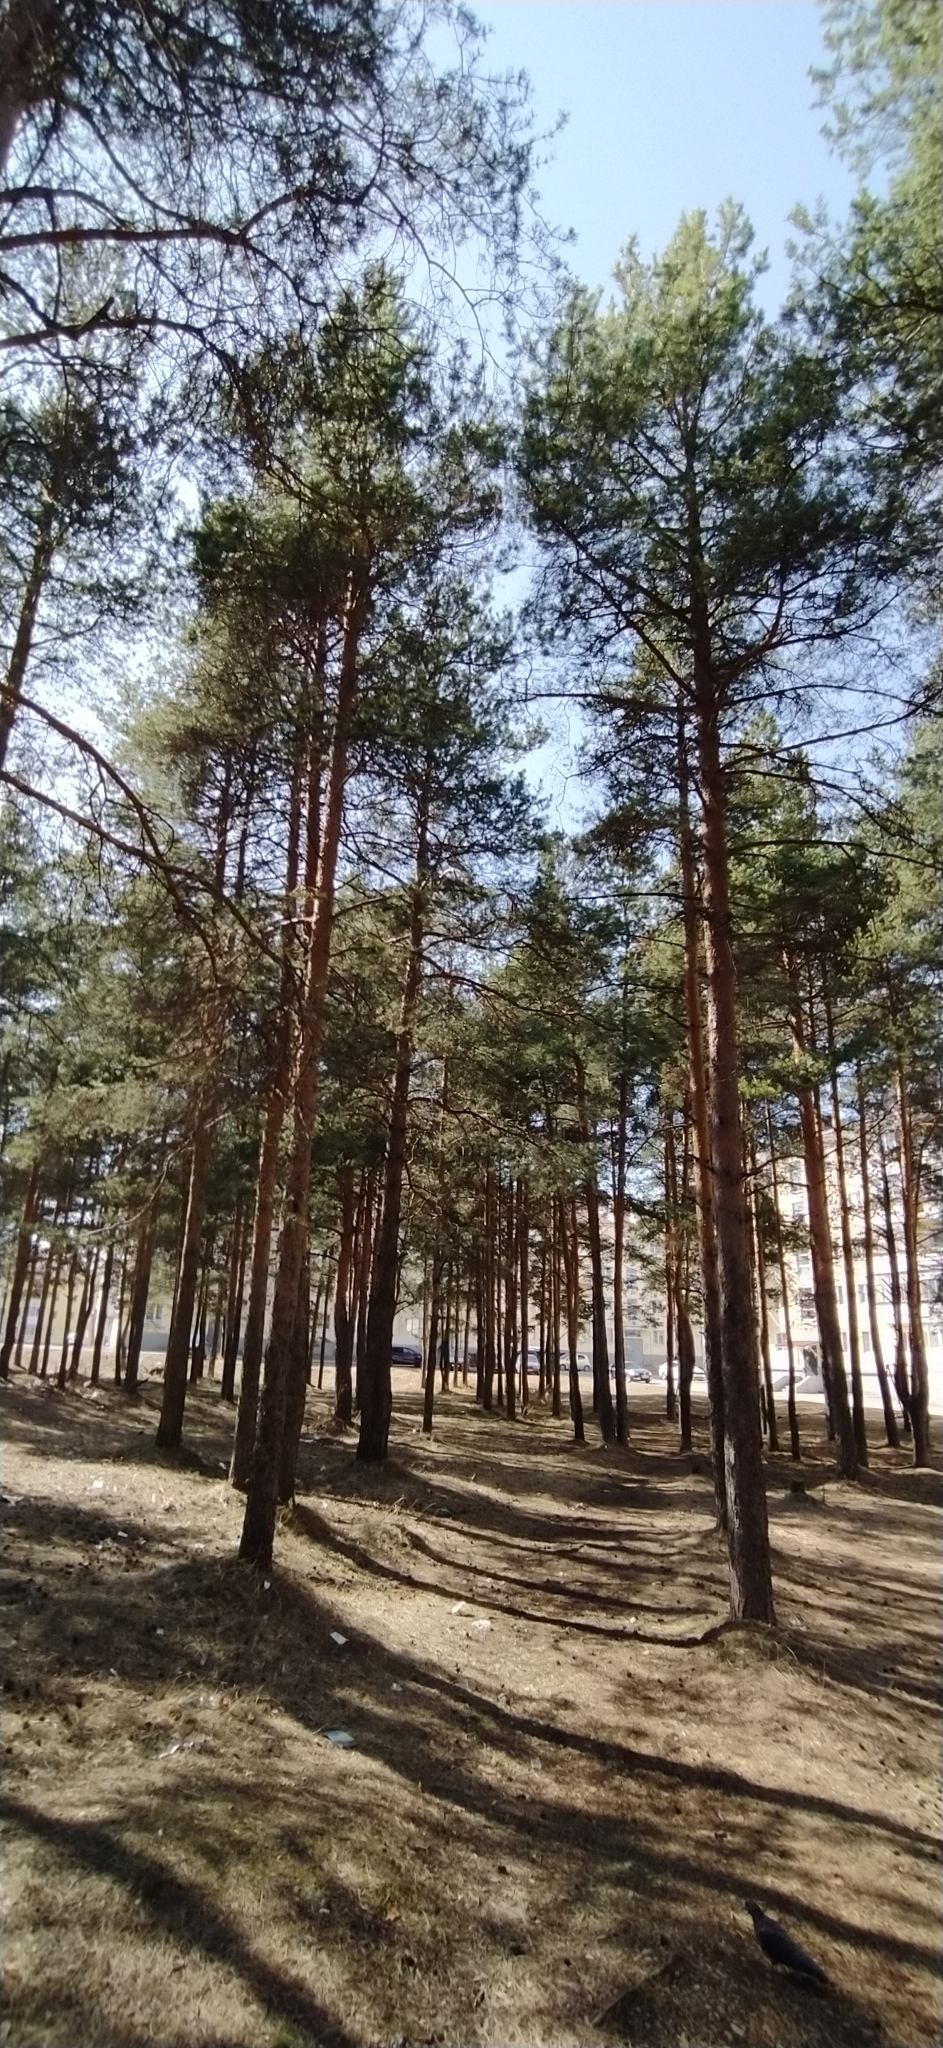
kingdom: Plantae
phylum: Tracheophyta
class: Pinopsida
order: Pinales
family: Pinaceae
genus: Pinus
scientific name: Pinus sylvestris
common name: Scots pine
